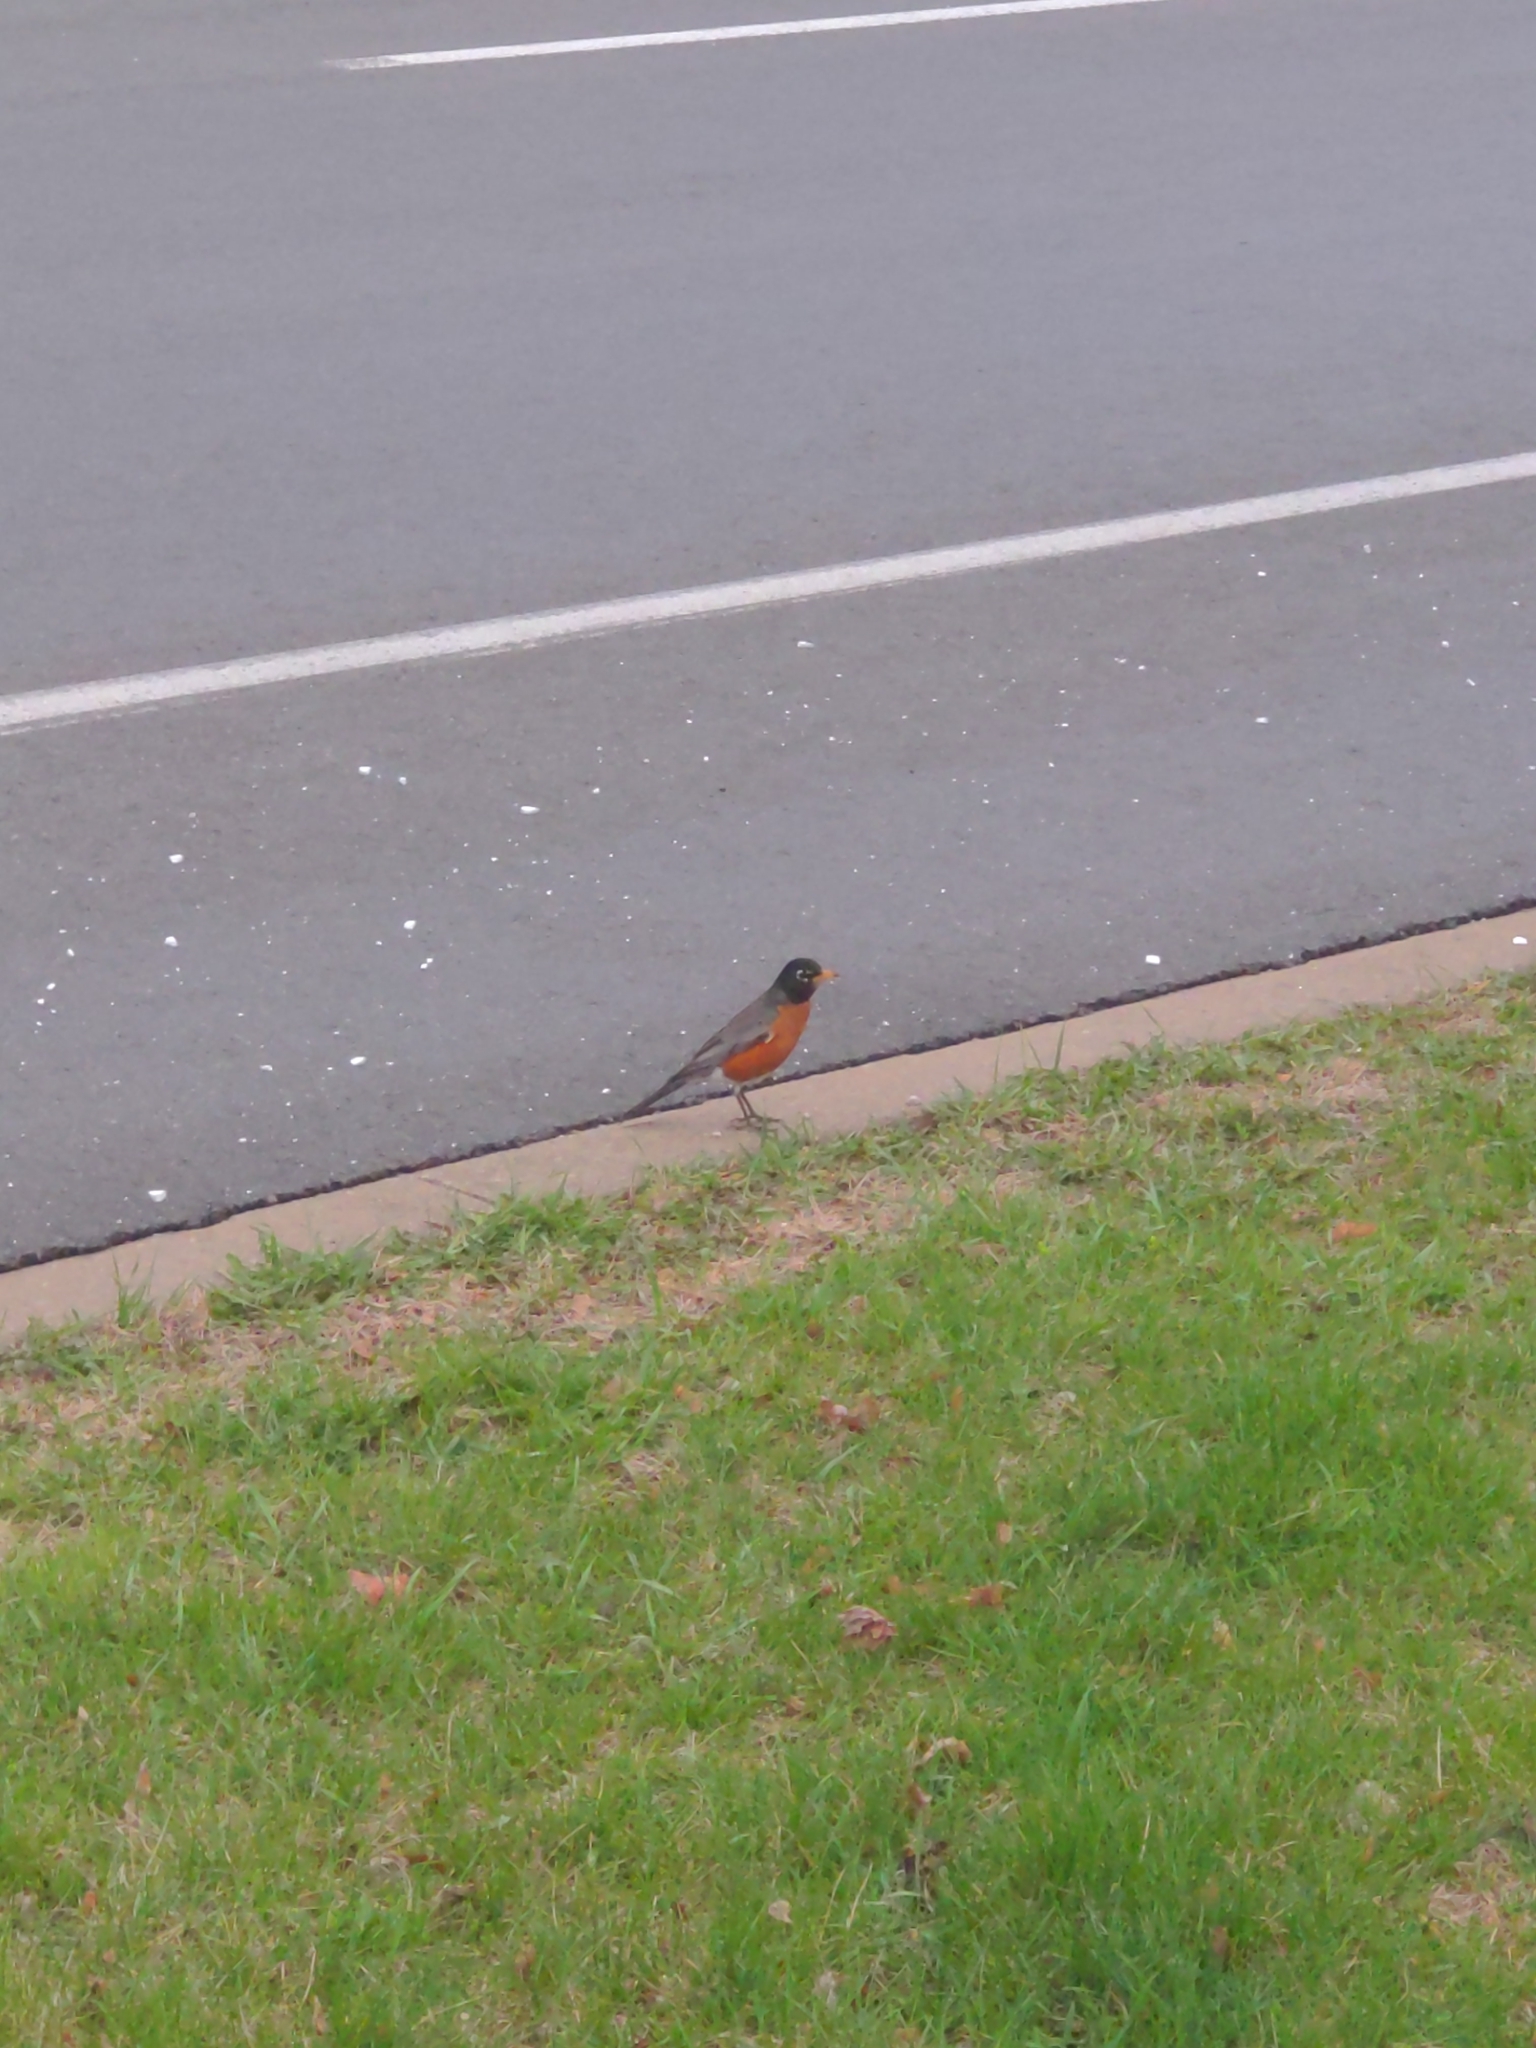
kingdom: Animalia
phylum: Chordata
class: Aves
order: Passeriformes
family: Turdidae
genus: Turdus
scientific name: Turdus migratorius
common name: American robin
